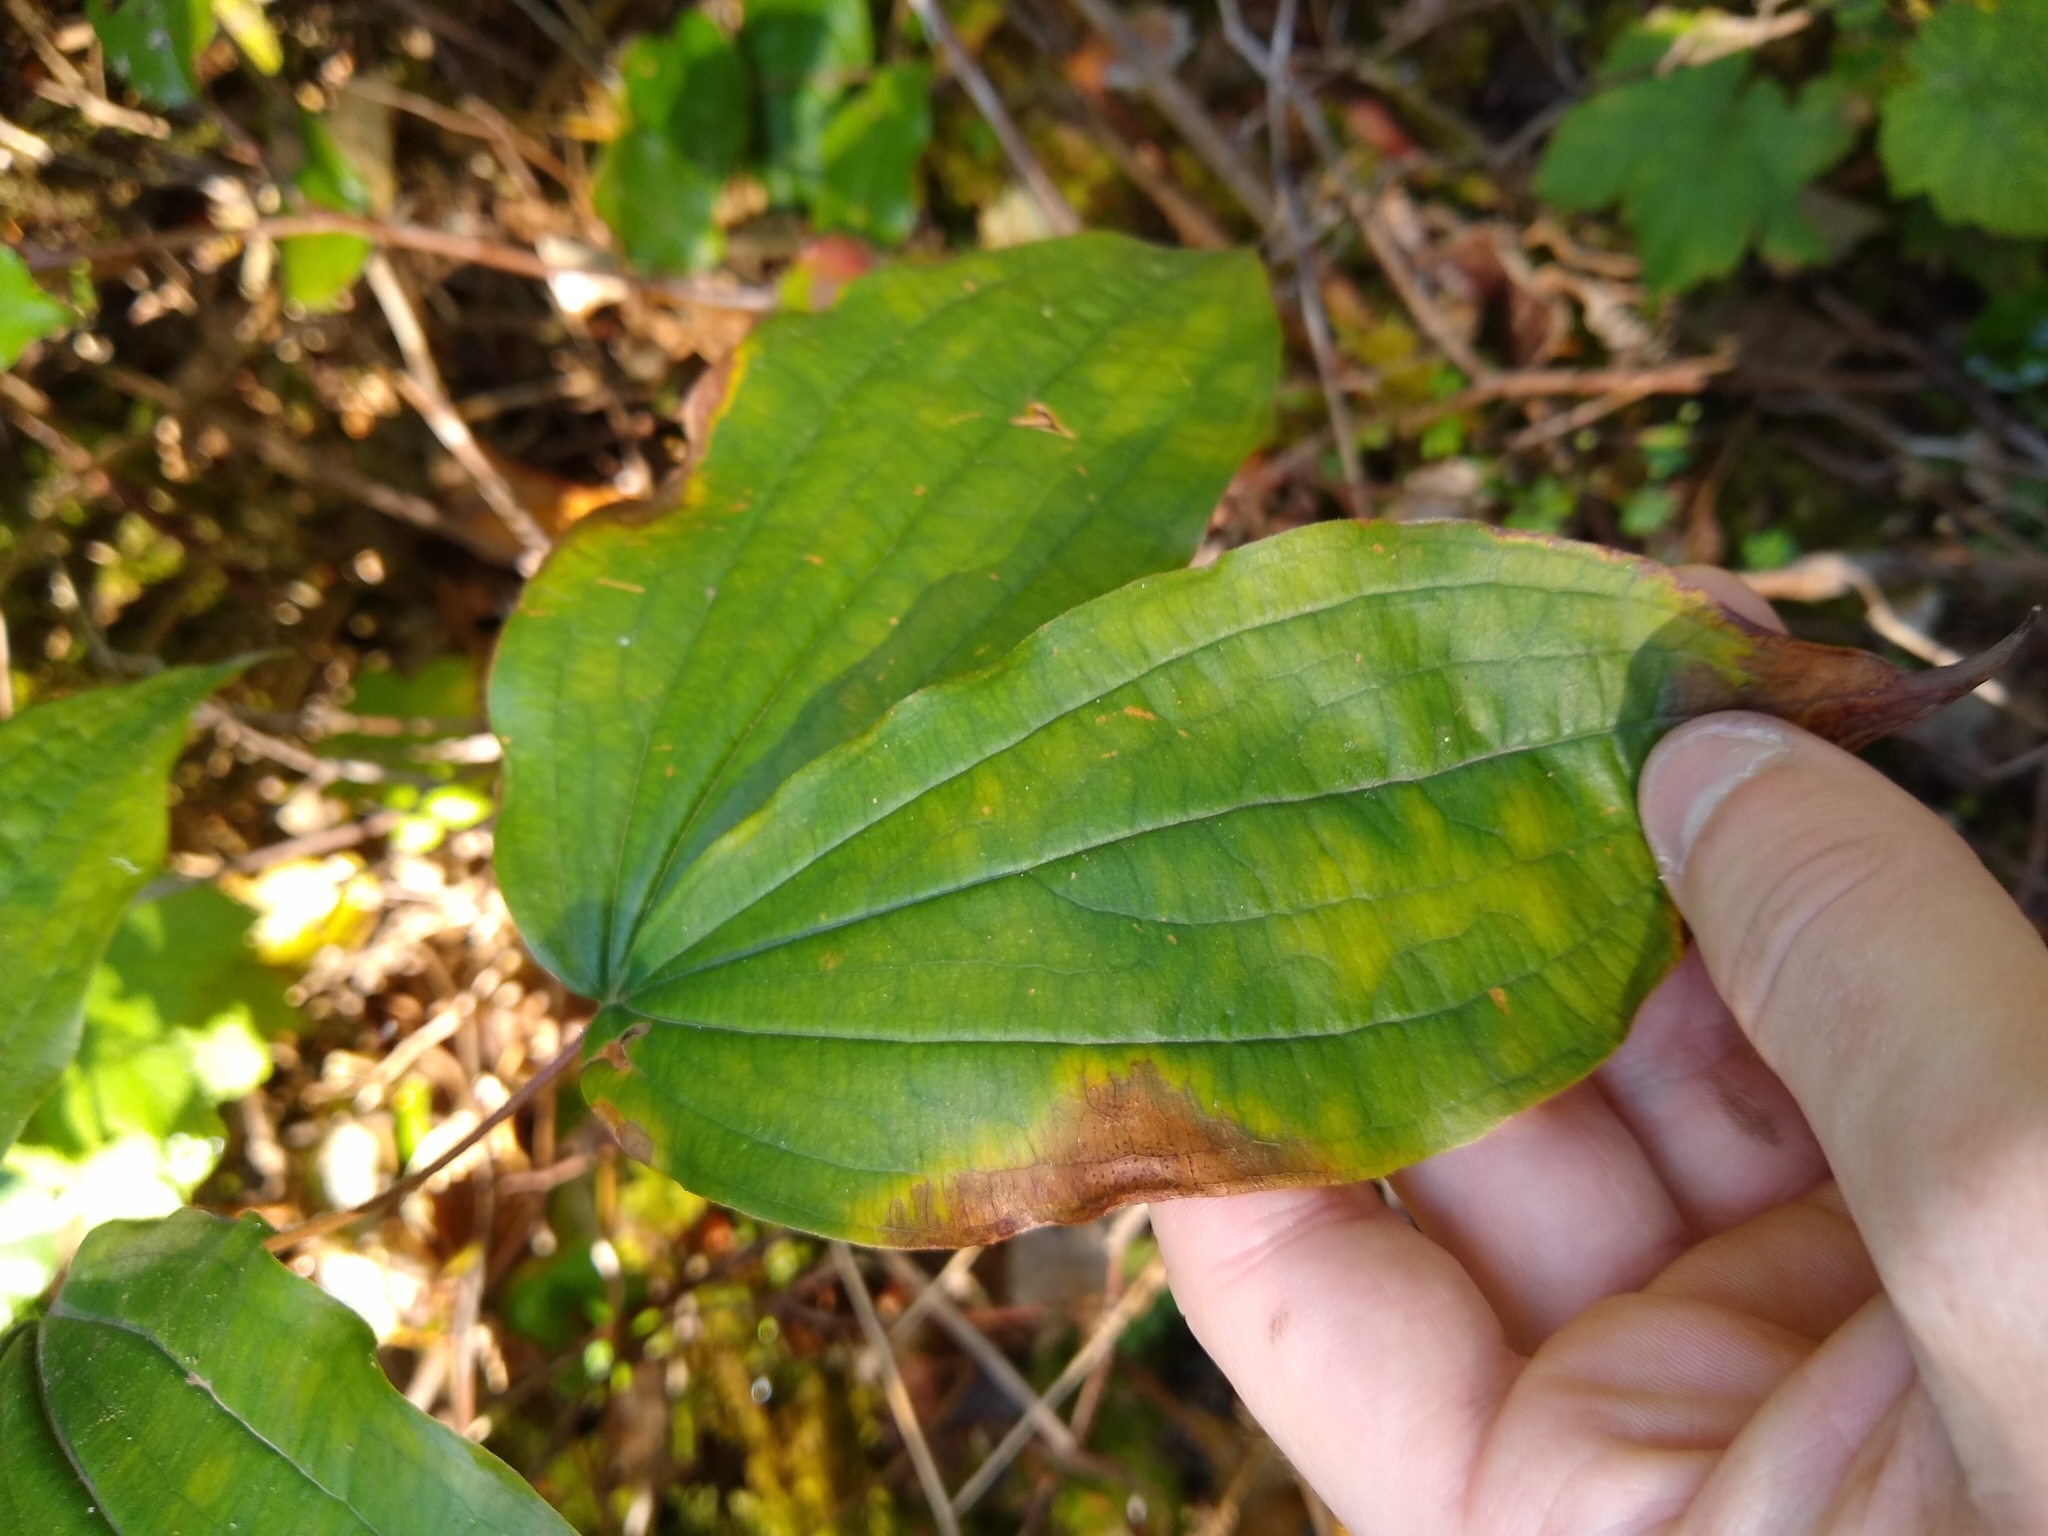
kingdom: Plantae
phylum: Tracheophyta
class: Liliopsida
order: Liliales
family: Liliaceae
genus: Prosartes
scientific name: Prosartes smithii
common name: Fairy-lantern
